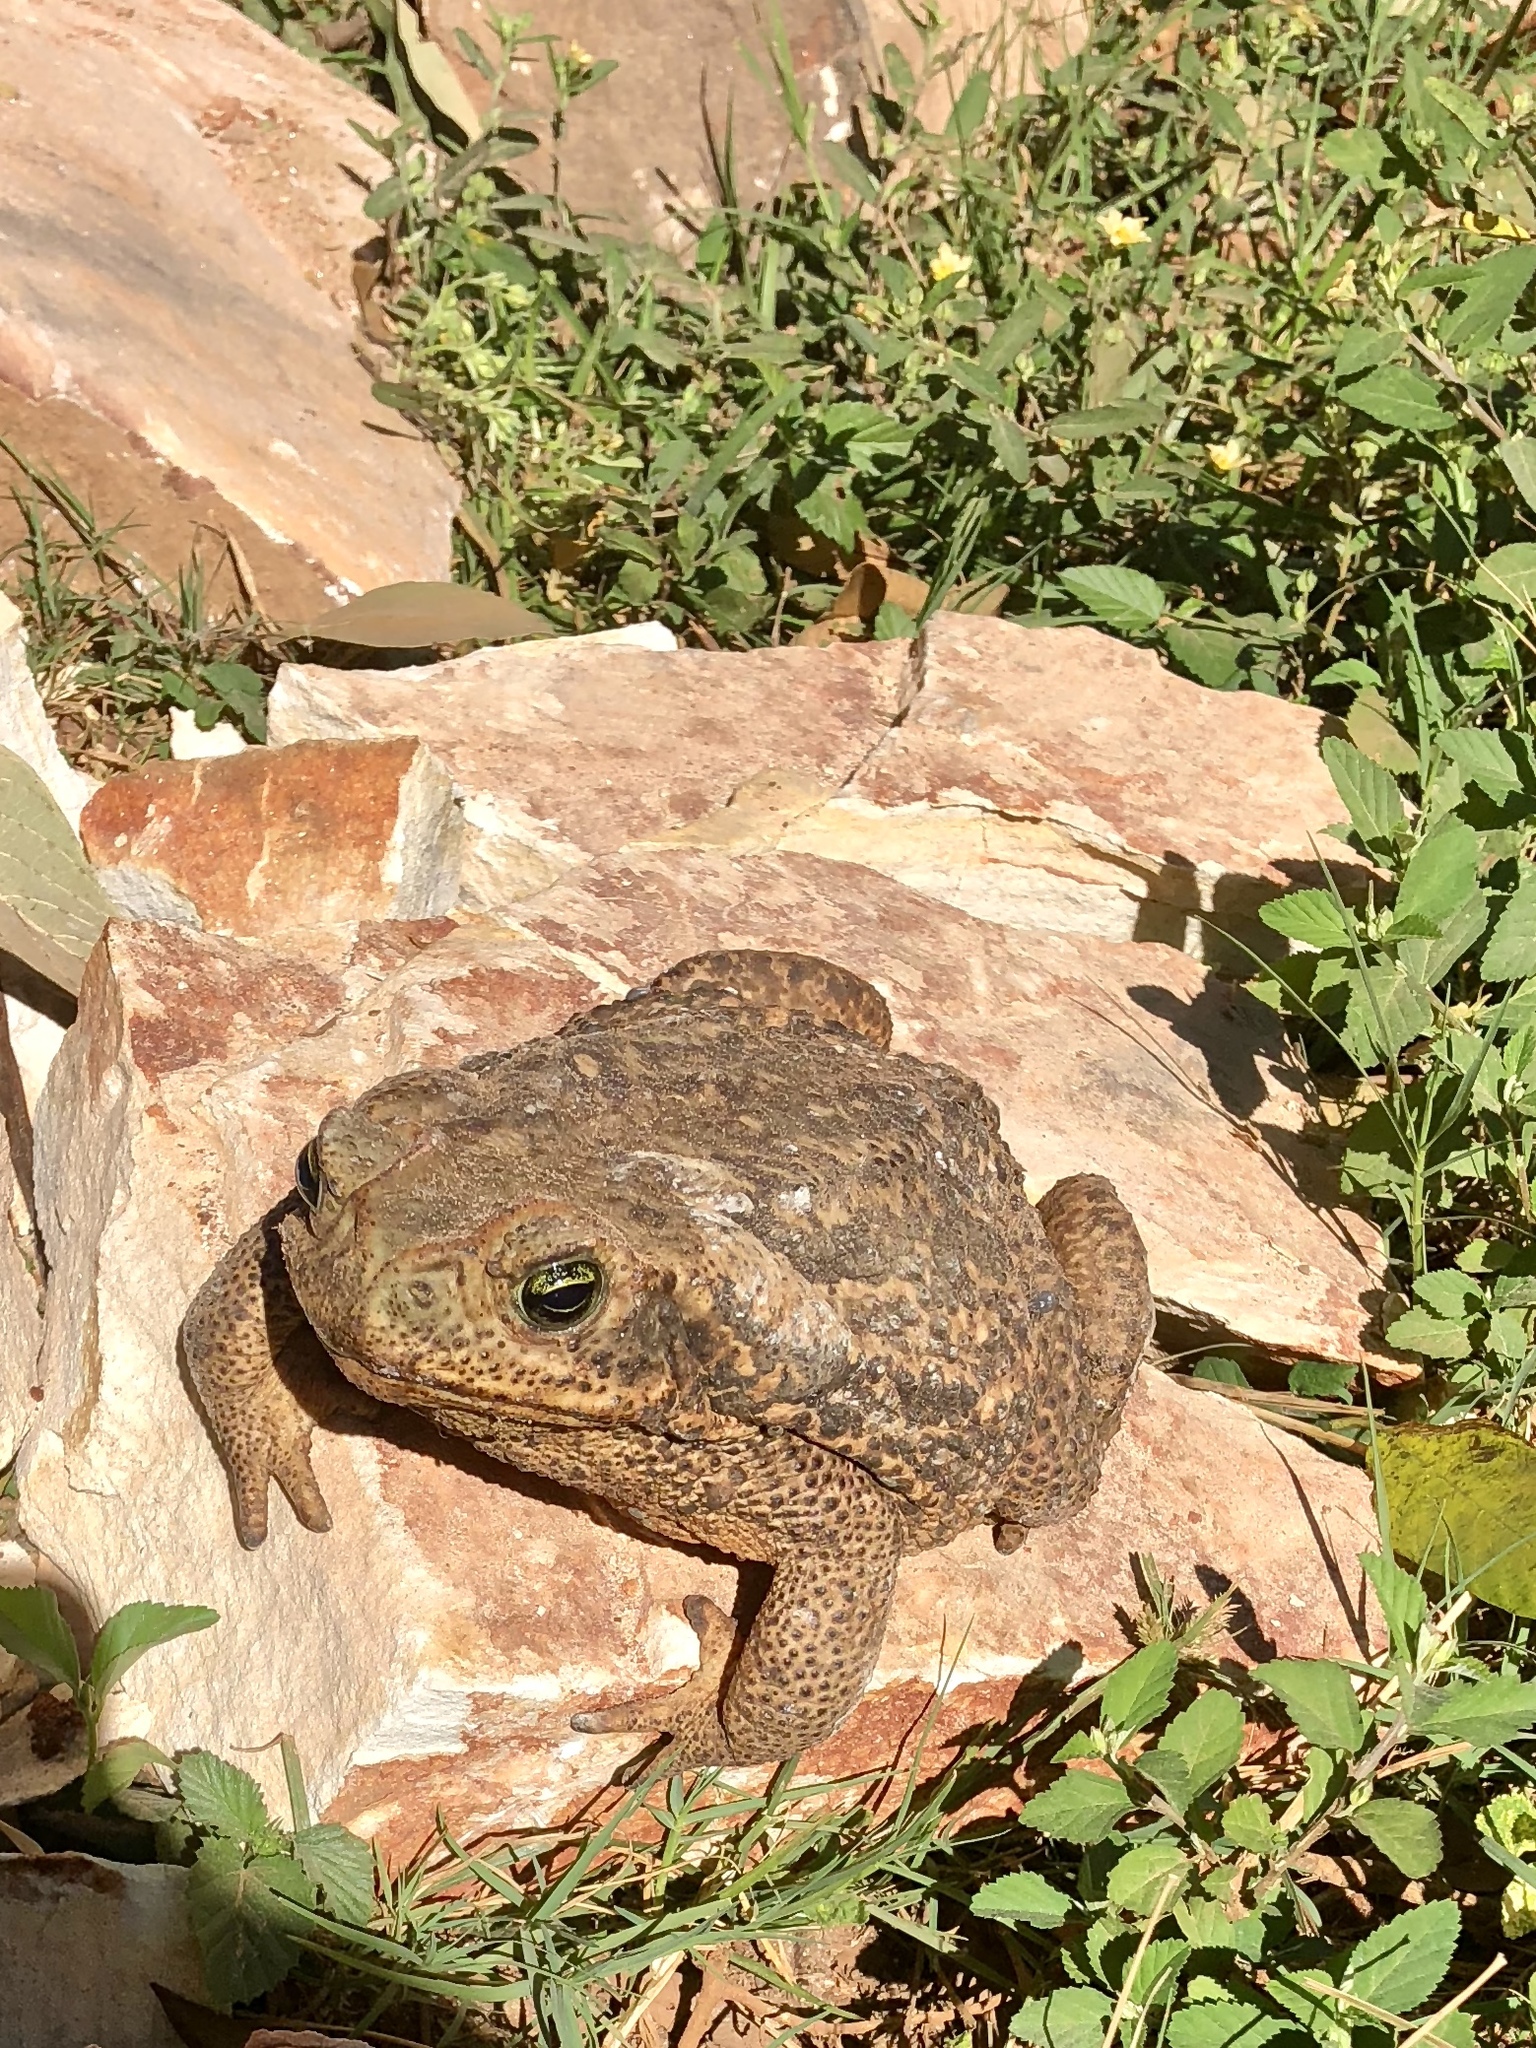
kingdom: Animalia
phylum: Chordata
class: Amphibia
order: Anura
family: Bufonidae
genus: Rhinella
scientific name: Rhinella diptycha
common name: Cope's toad
